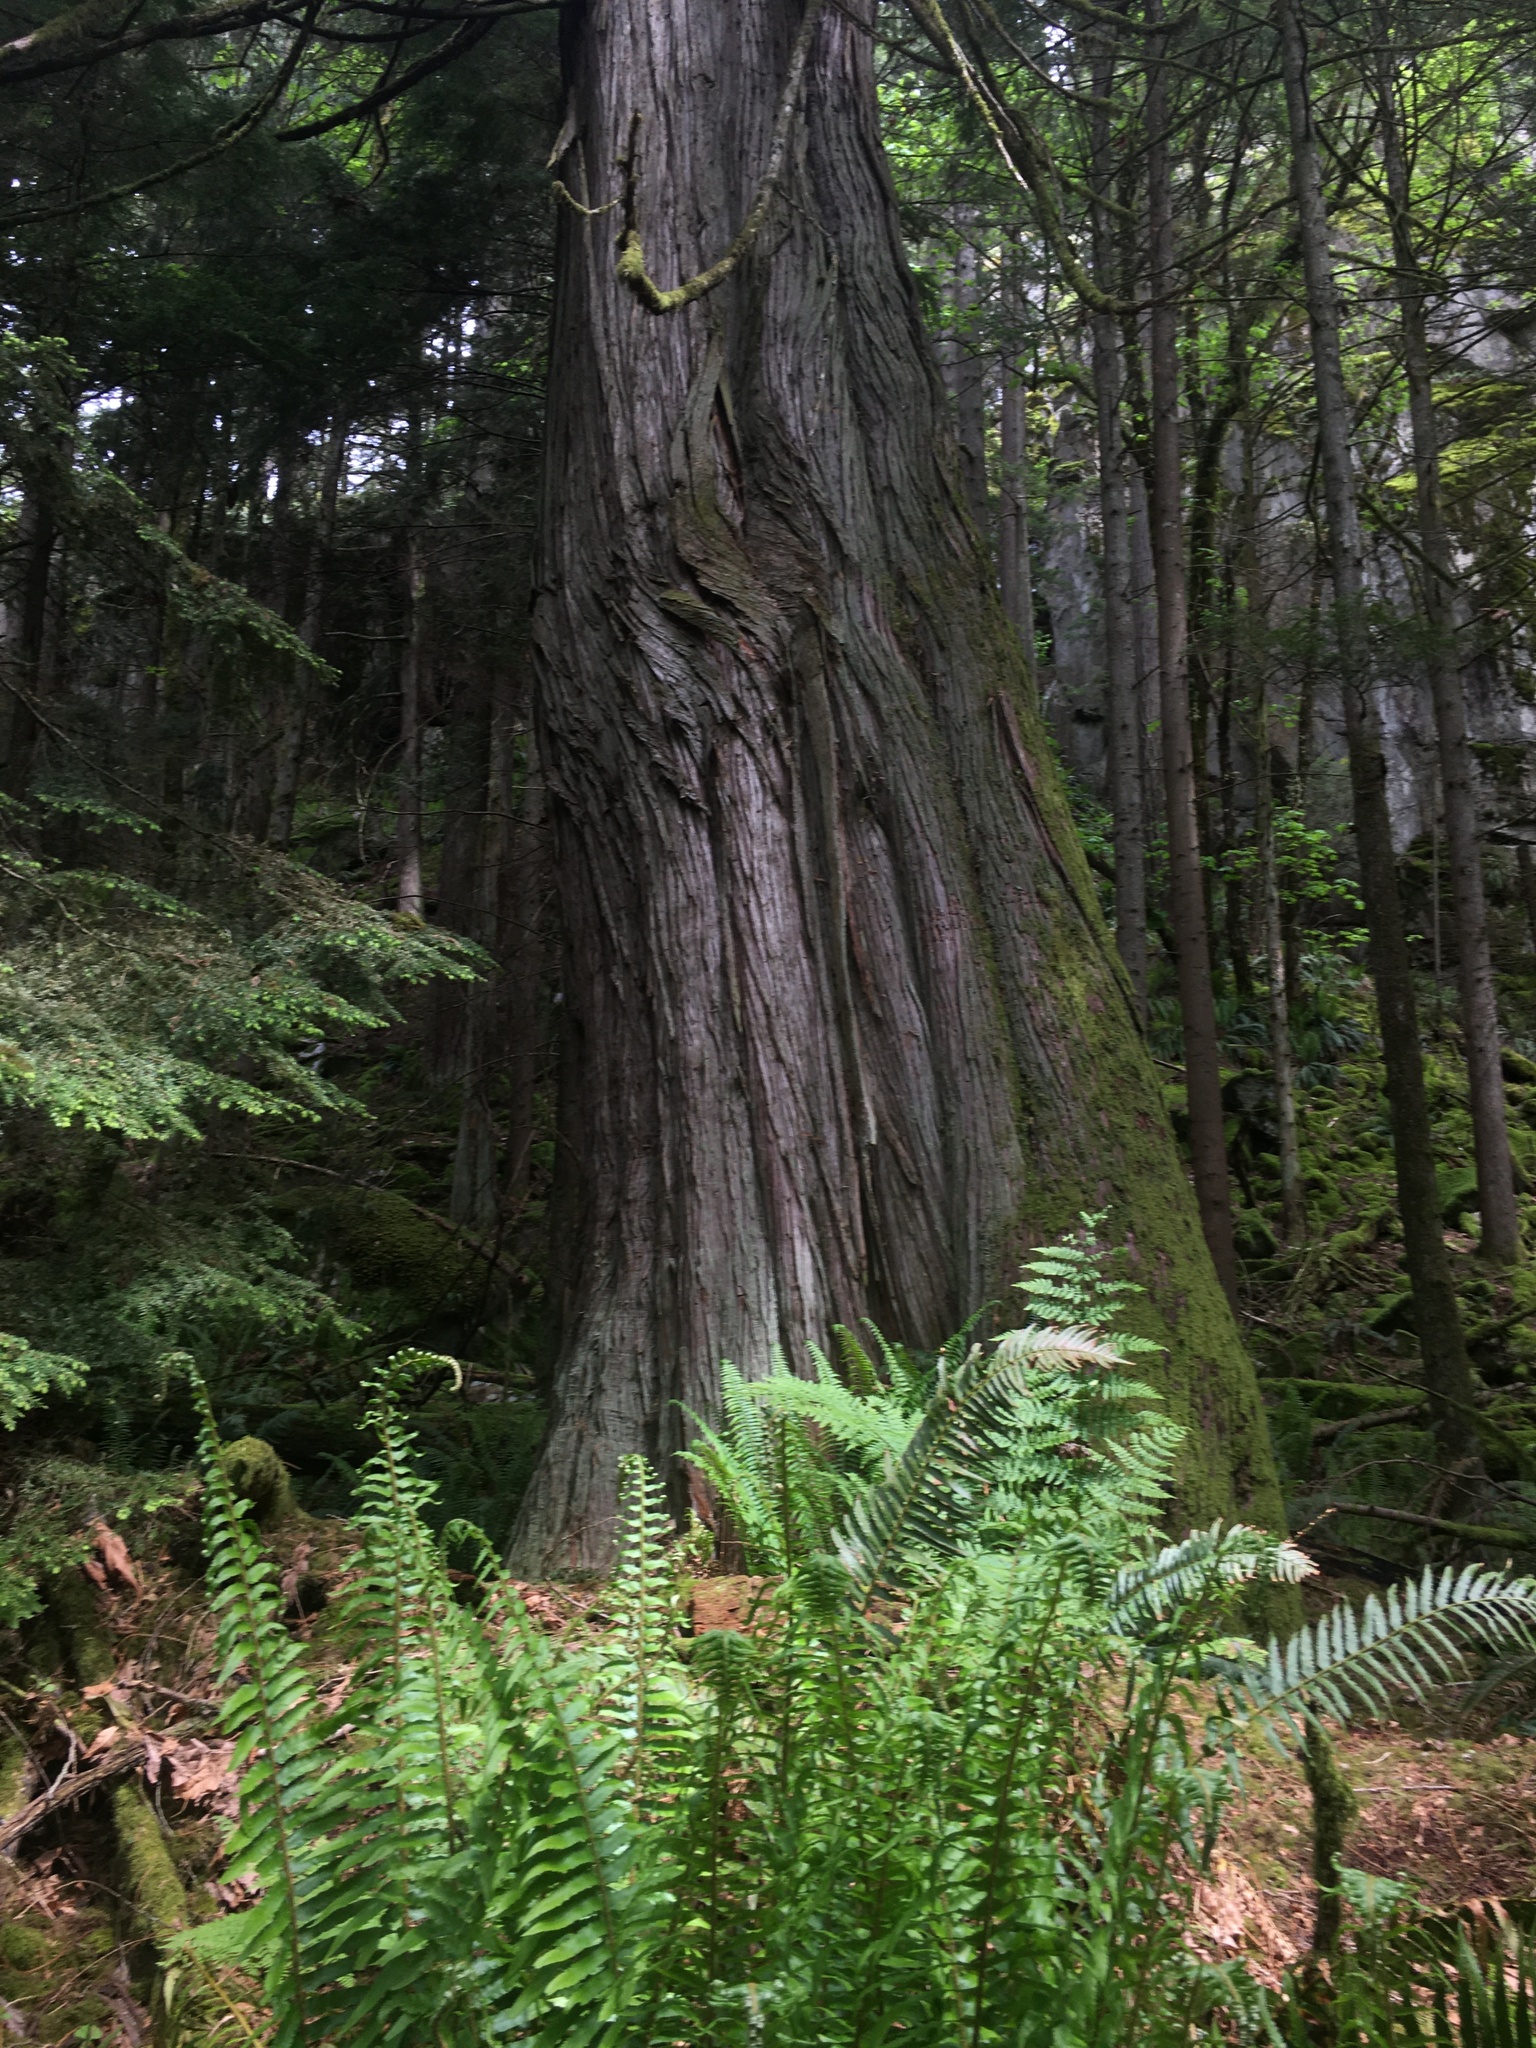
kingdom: Plantae
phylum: Tracheophyta
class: Pinopsida
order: Pinales
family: Cupressaceae
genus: Thuja
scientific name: Thuja plicata
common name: Western red-cedar
